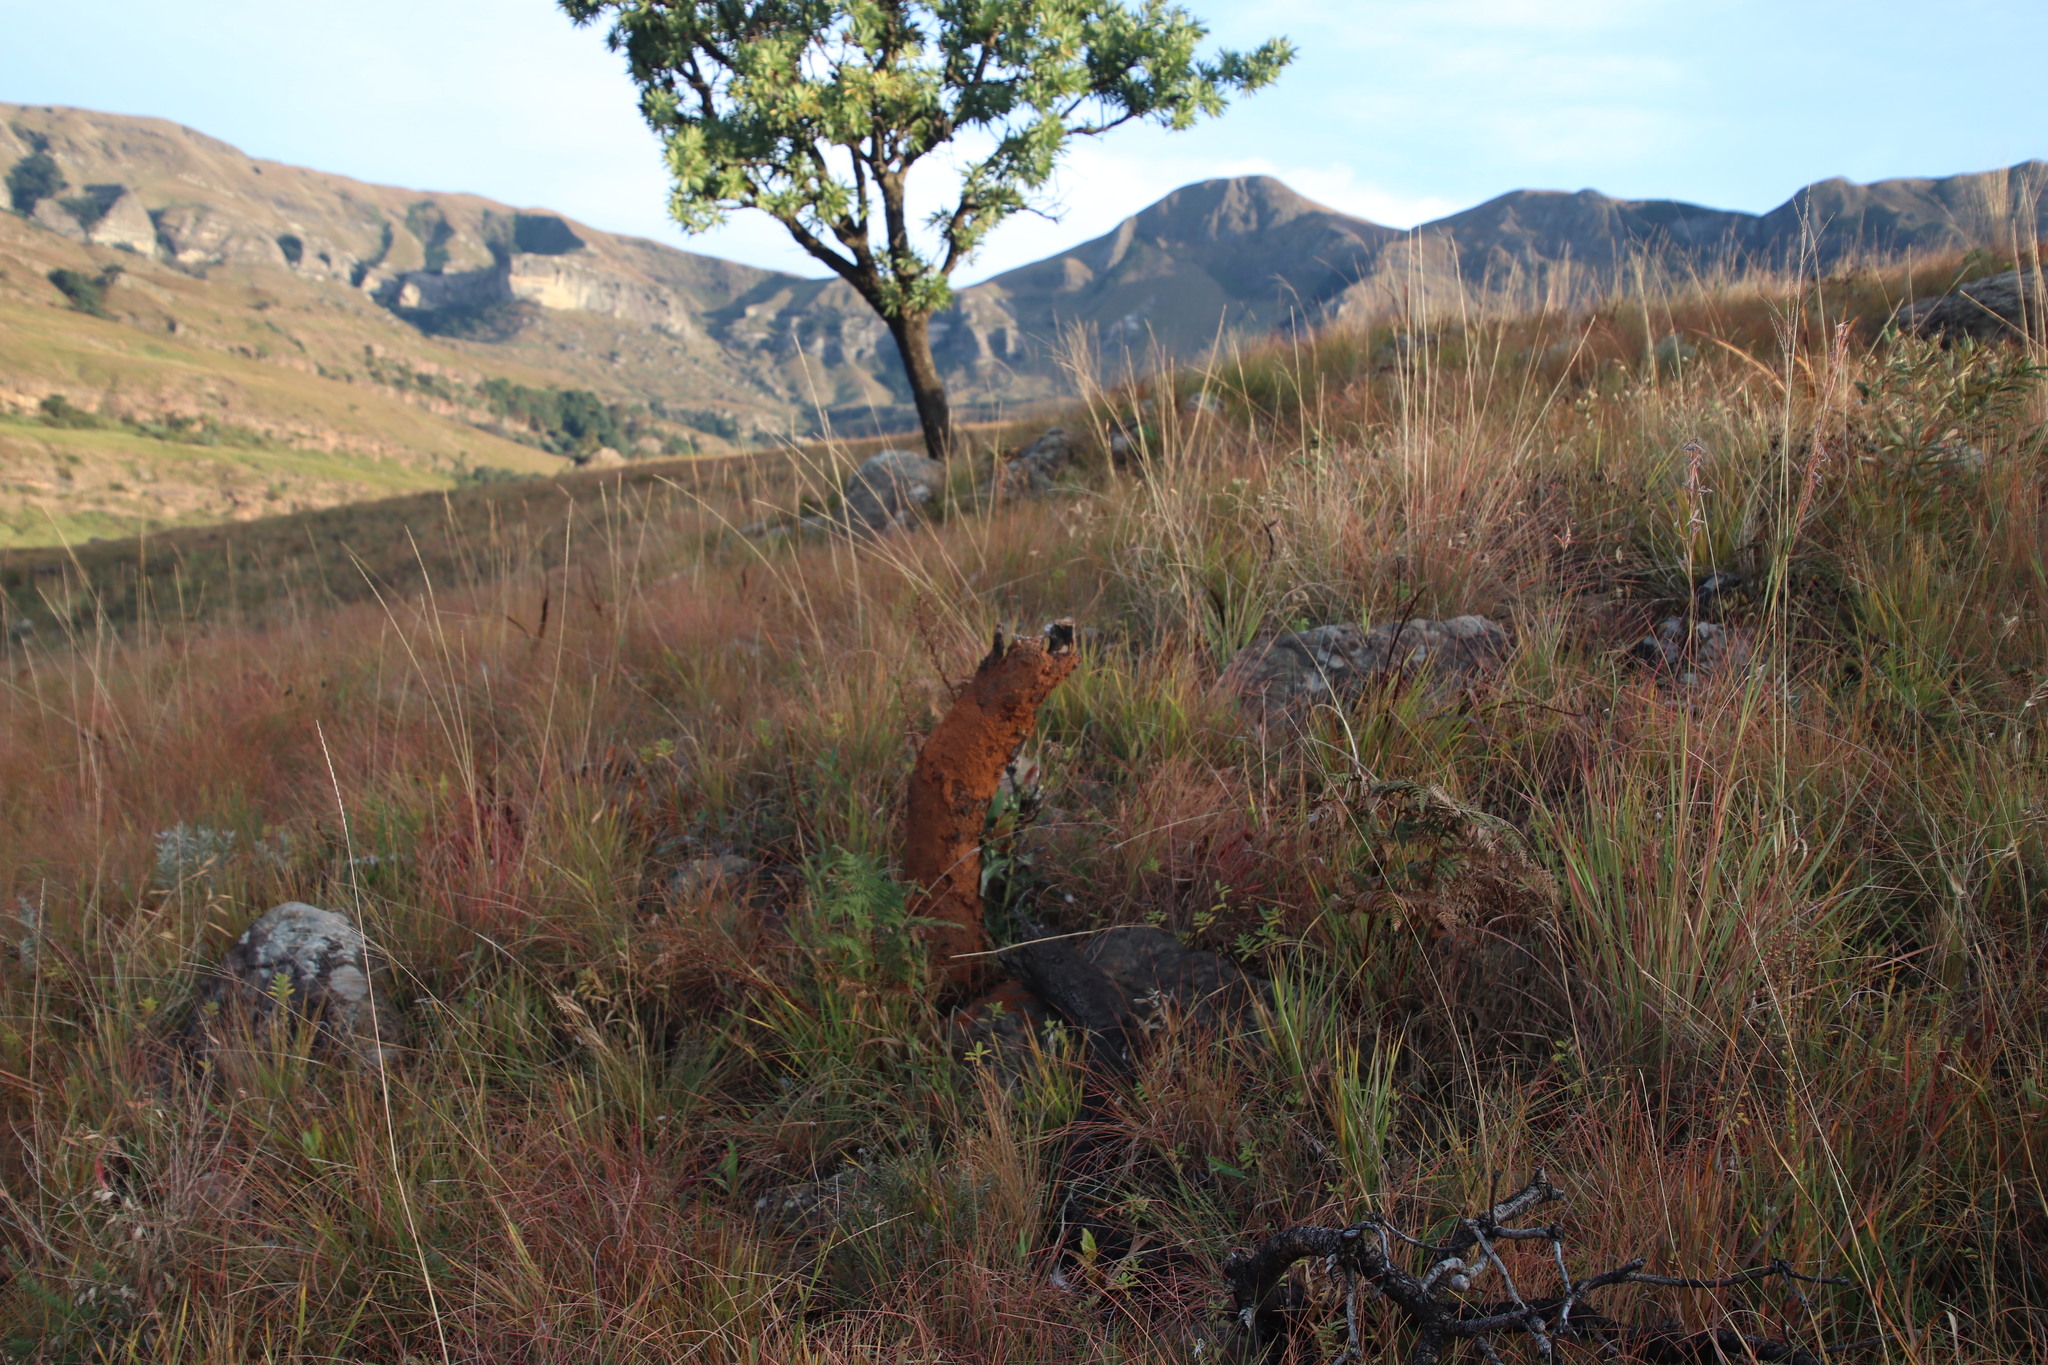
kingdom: Plantae
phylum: Tracheophyta
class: Magnoliopsida
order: Proteales
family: Proteaceae
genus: Protea
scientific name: Protea caffra
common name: Common sugarbush
